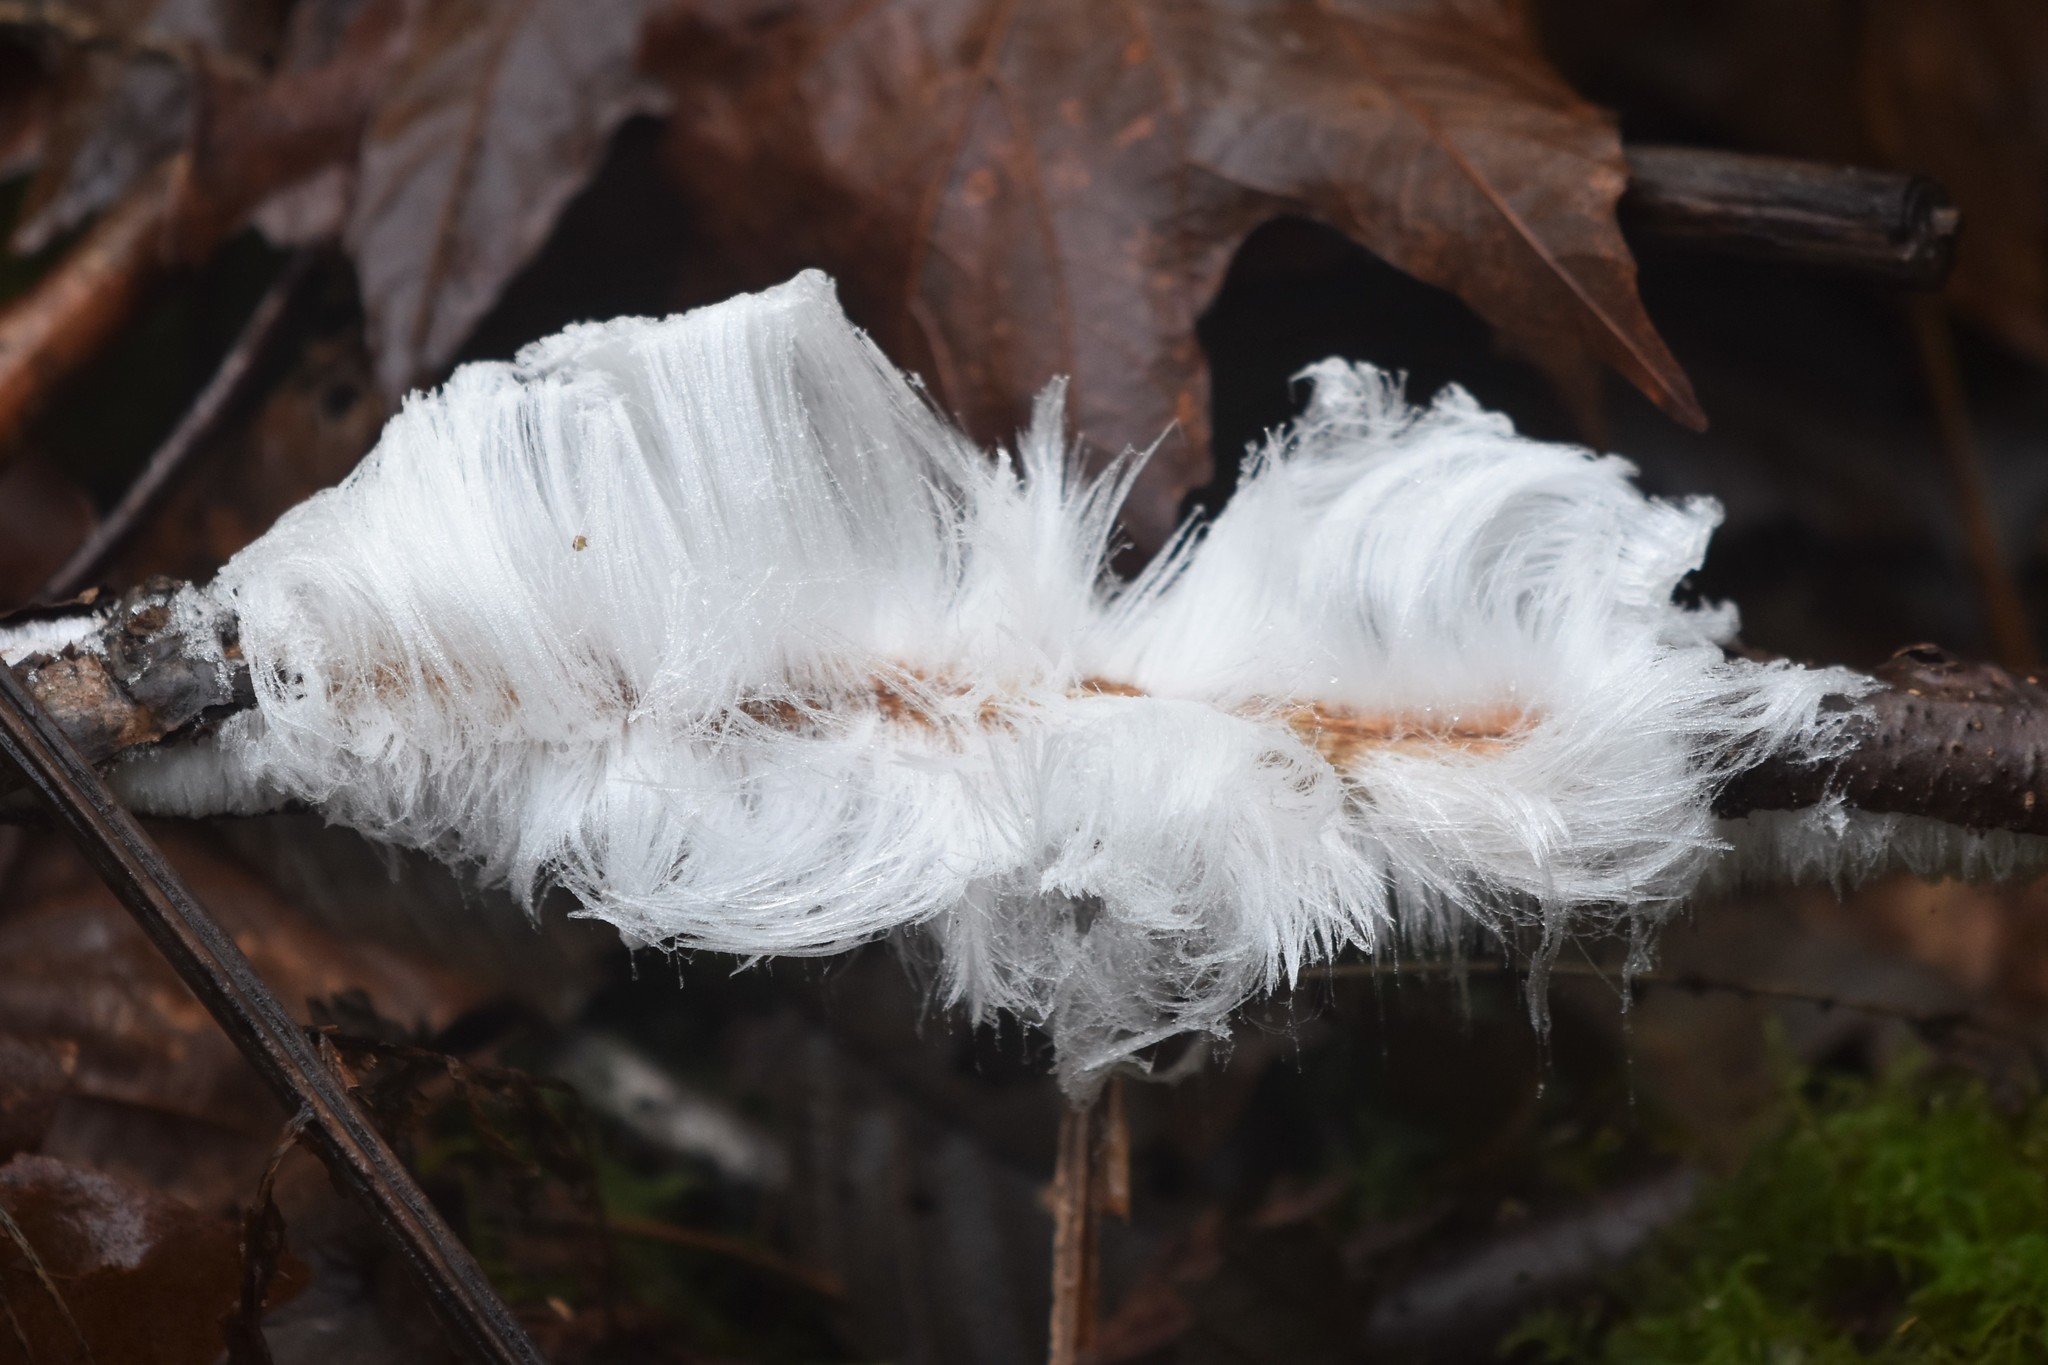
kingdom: Fungi
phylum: Basidiomycota
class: Agaricomycetes
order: Auriculariales
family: Auriculariaceae
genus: Exidiopsis
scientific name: Exidiopsis effusa
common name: Hair ice crust
